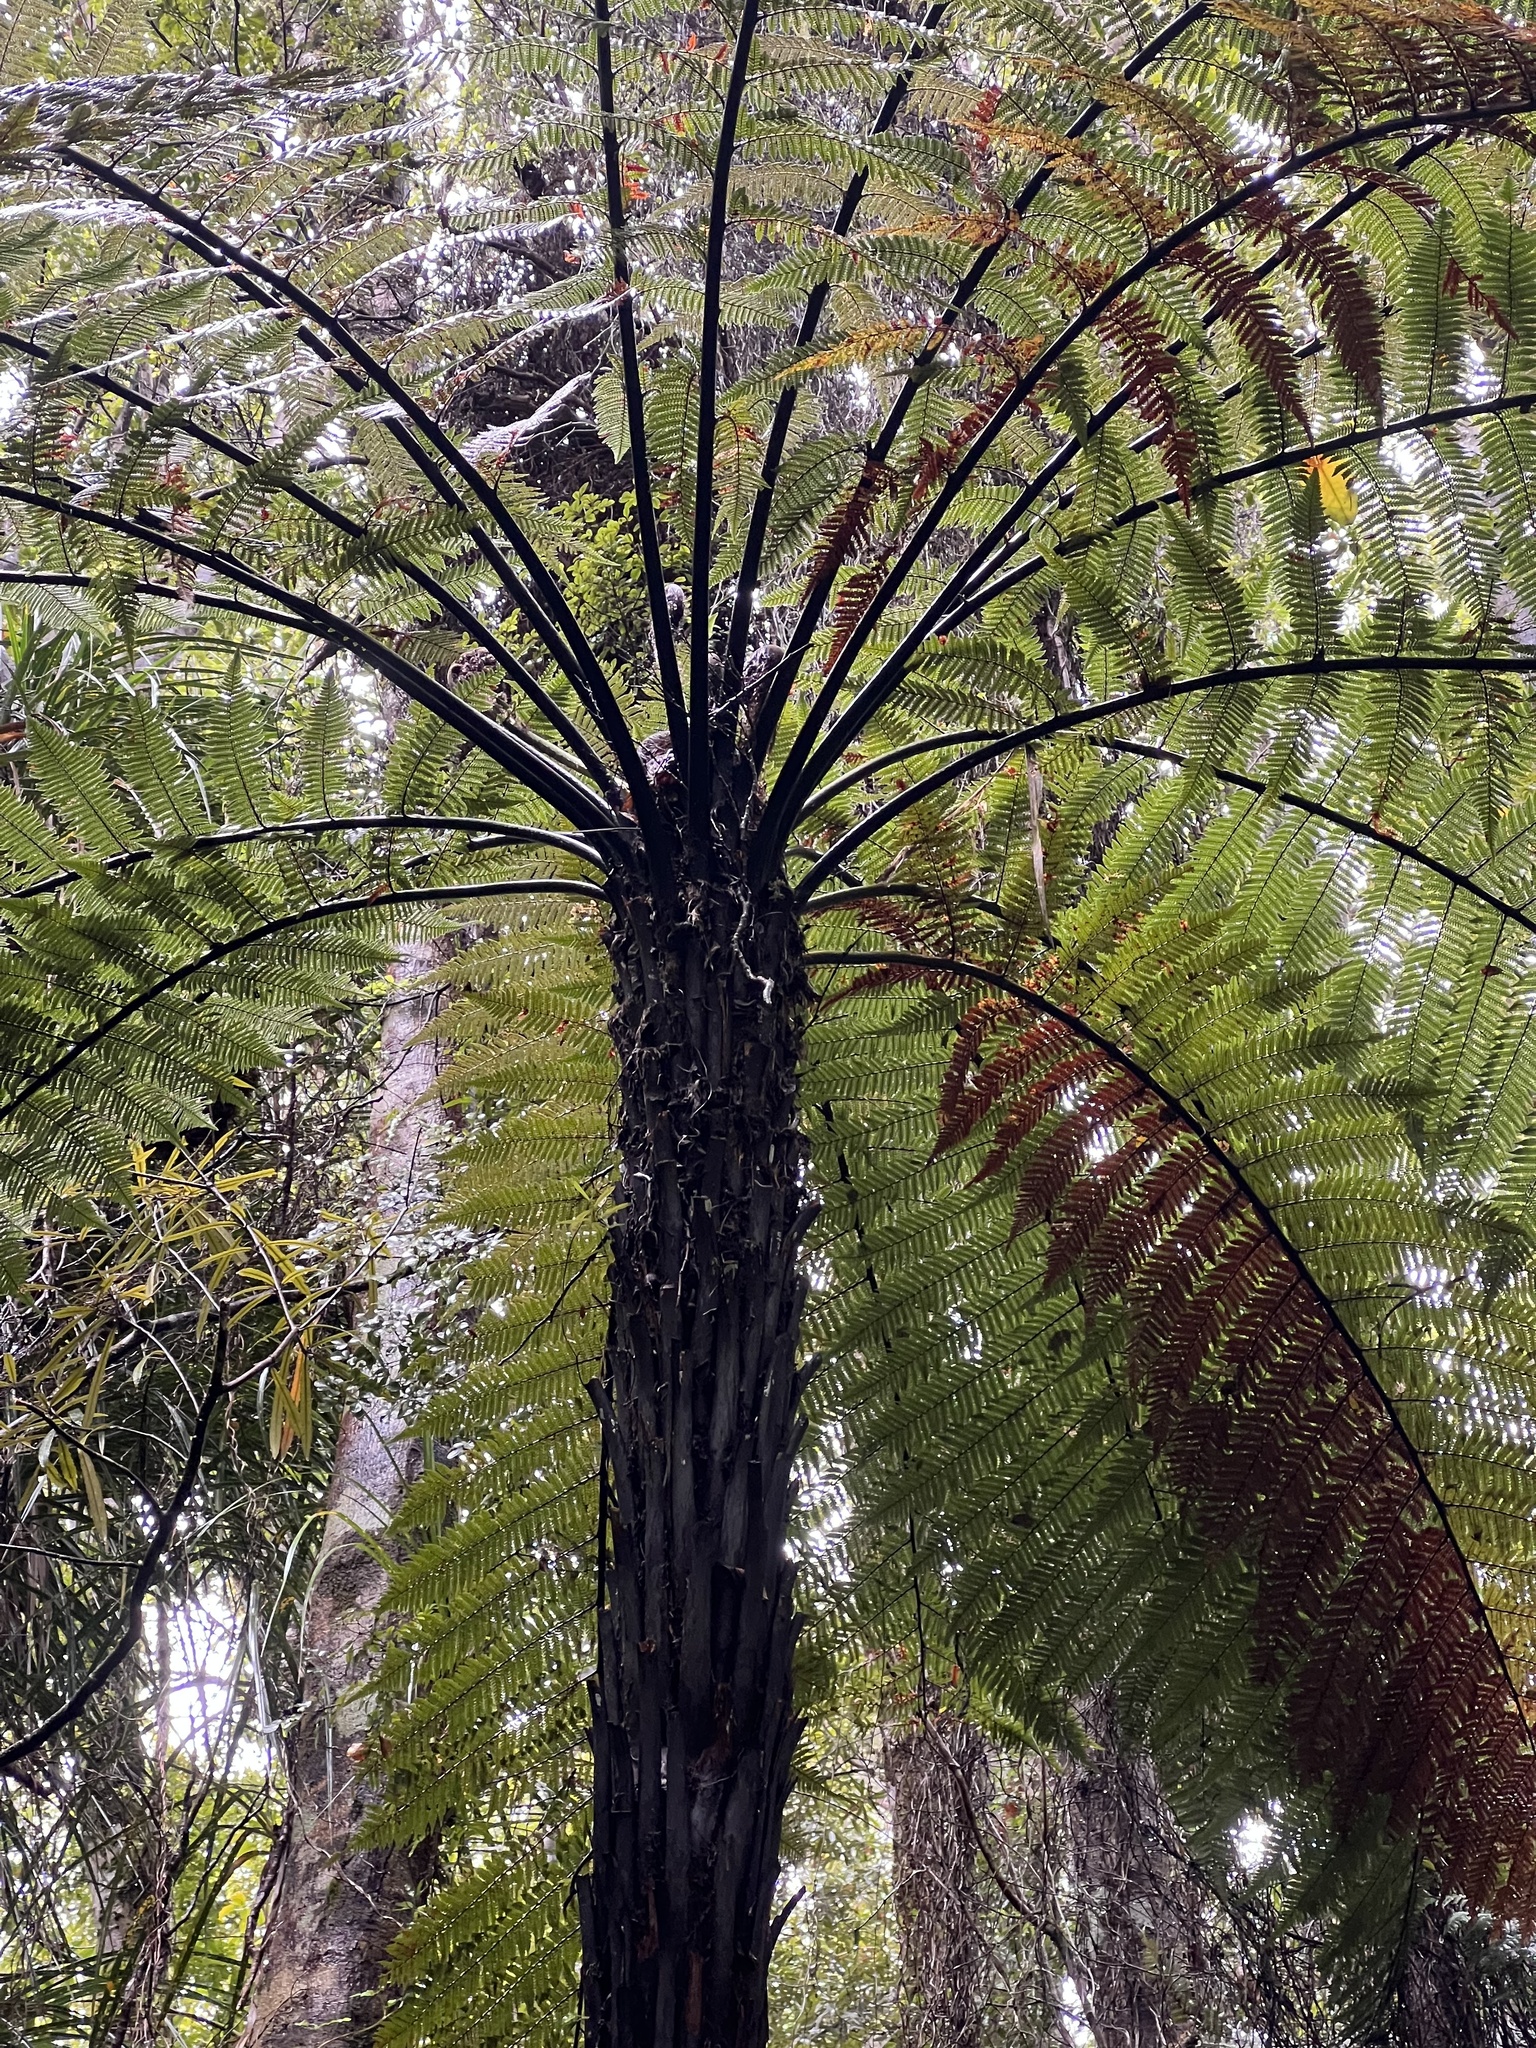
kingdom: Plantae
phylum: Tracheophyta
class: Polypodiopsida
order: Cyatheales
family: Dicksoniaceae
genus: Dicksonia
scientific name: Dicksonia squarrosa
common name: Hard treefern
